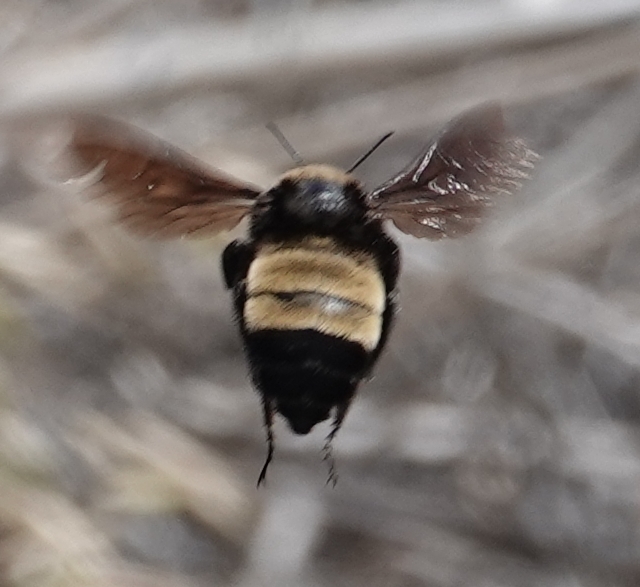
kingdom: Animalia
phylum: Arthropoda
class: Insecta
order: Hymenoptera
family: Apidae
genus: Bombus
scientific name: Bombus pensylvanicus
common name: Bumble bee
